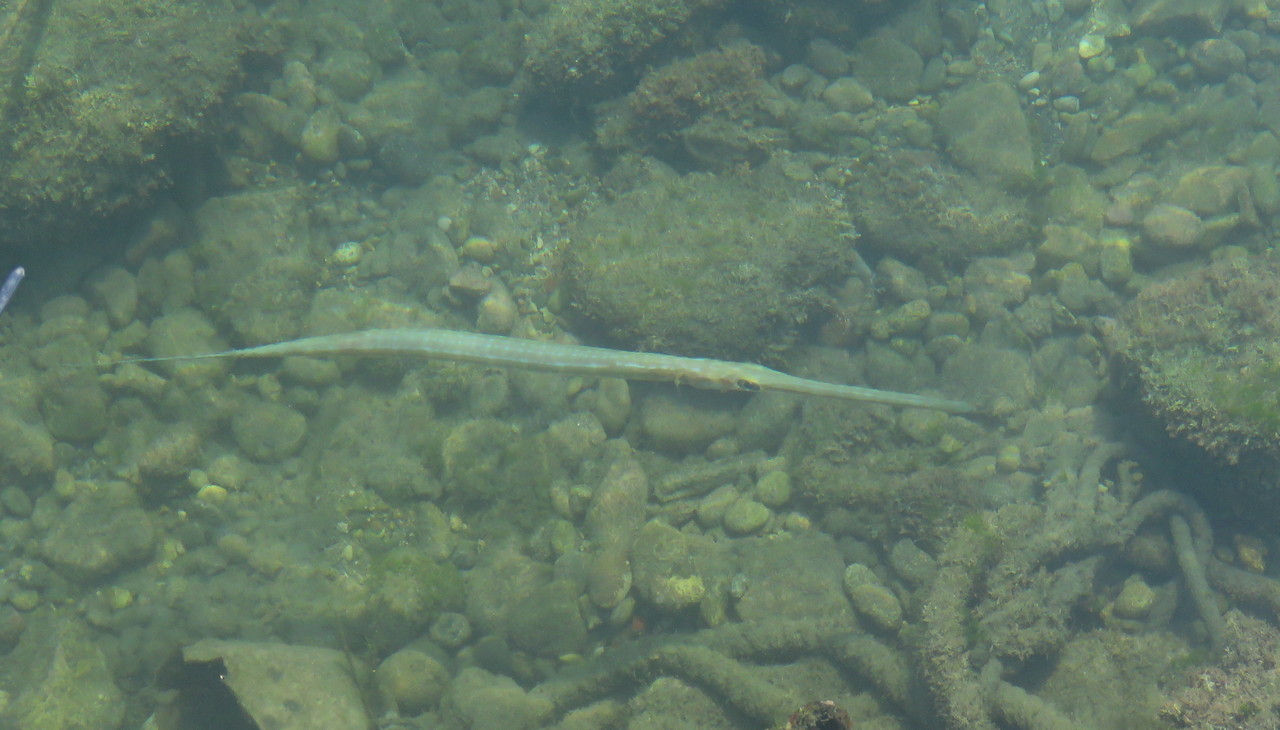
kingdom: Animalia
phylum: Chordata
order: Syngnathiformes
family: Fistulariidae
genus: Fistularia
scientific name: Fistularia commersonii
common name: Bluespotted cornetfish
